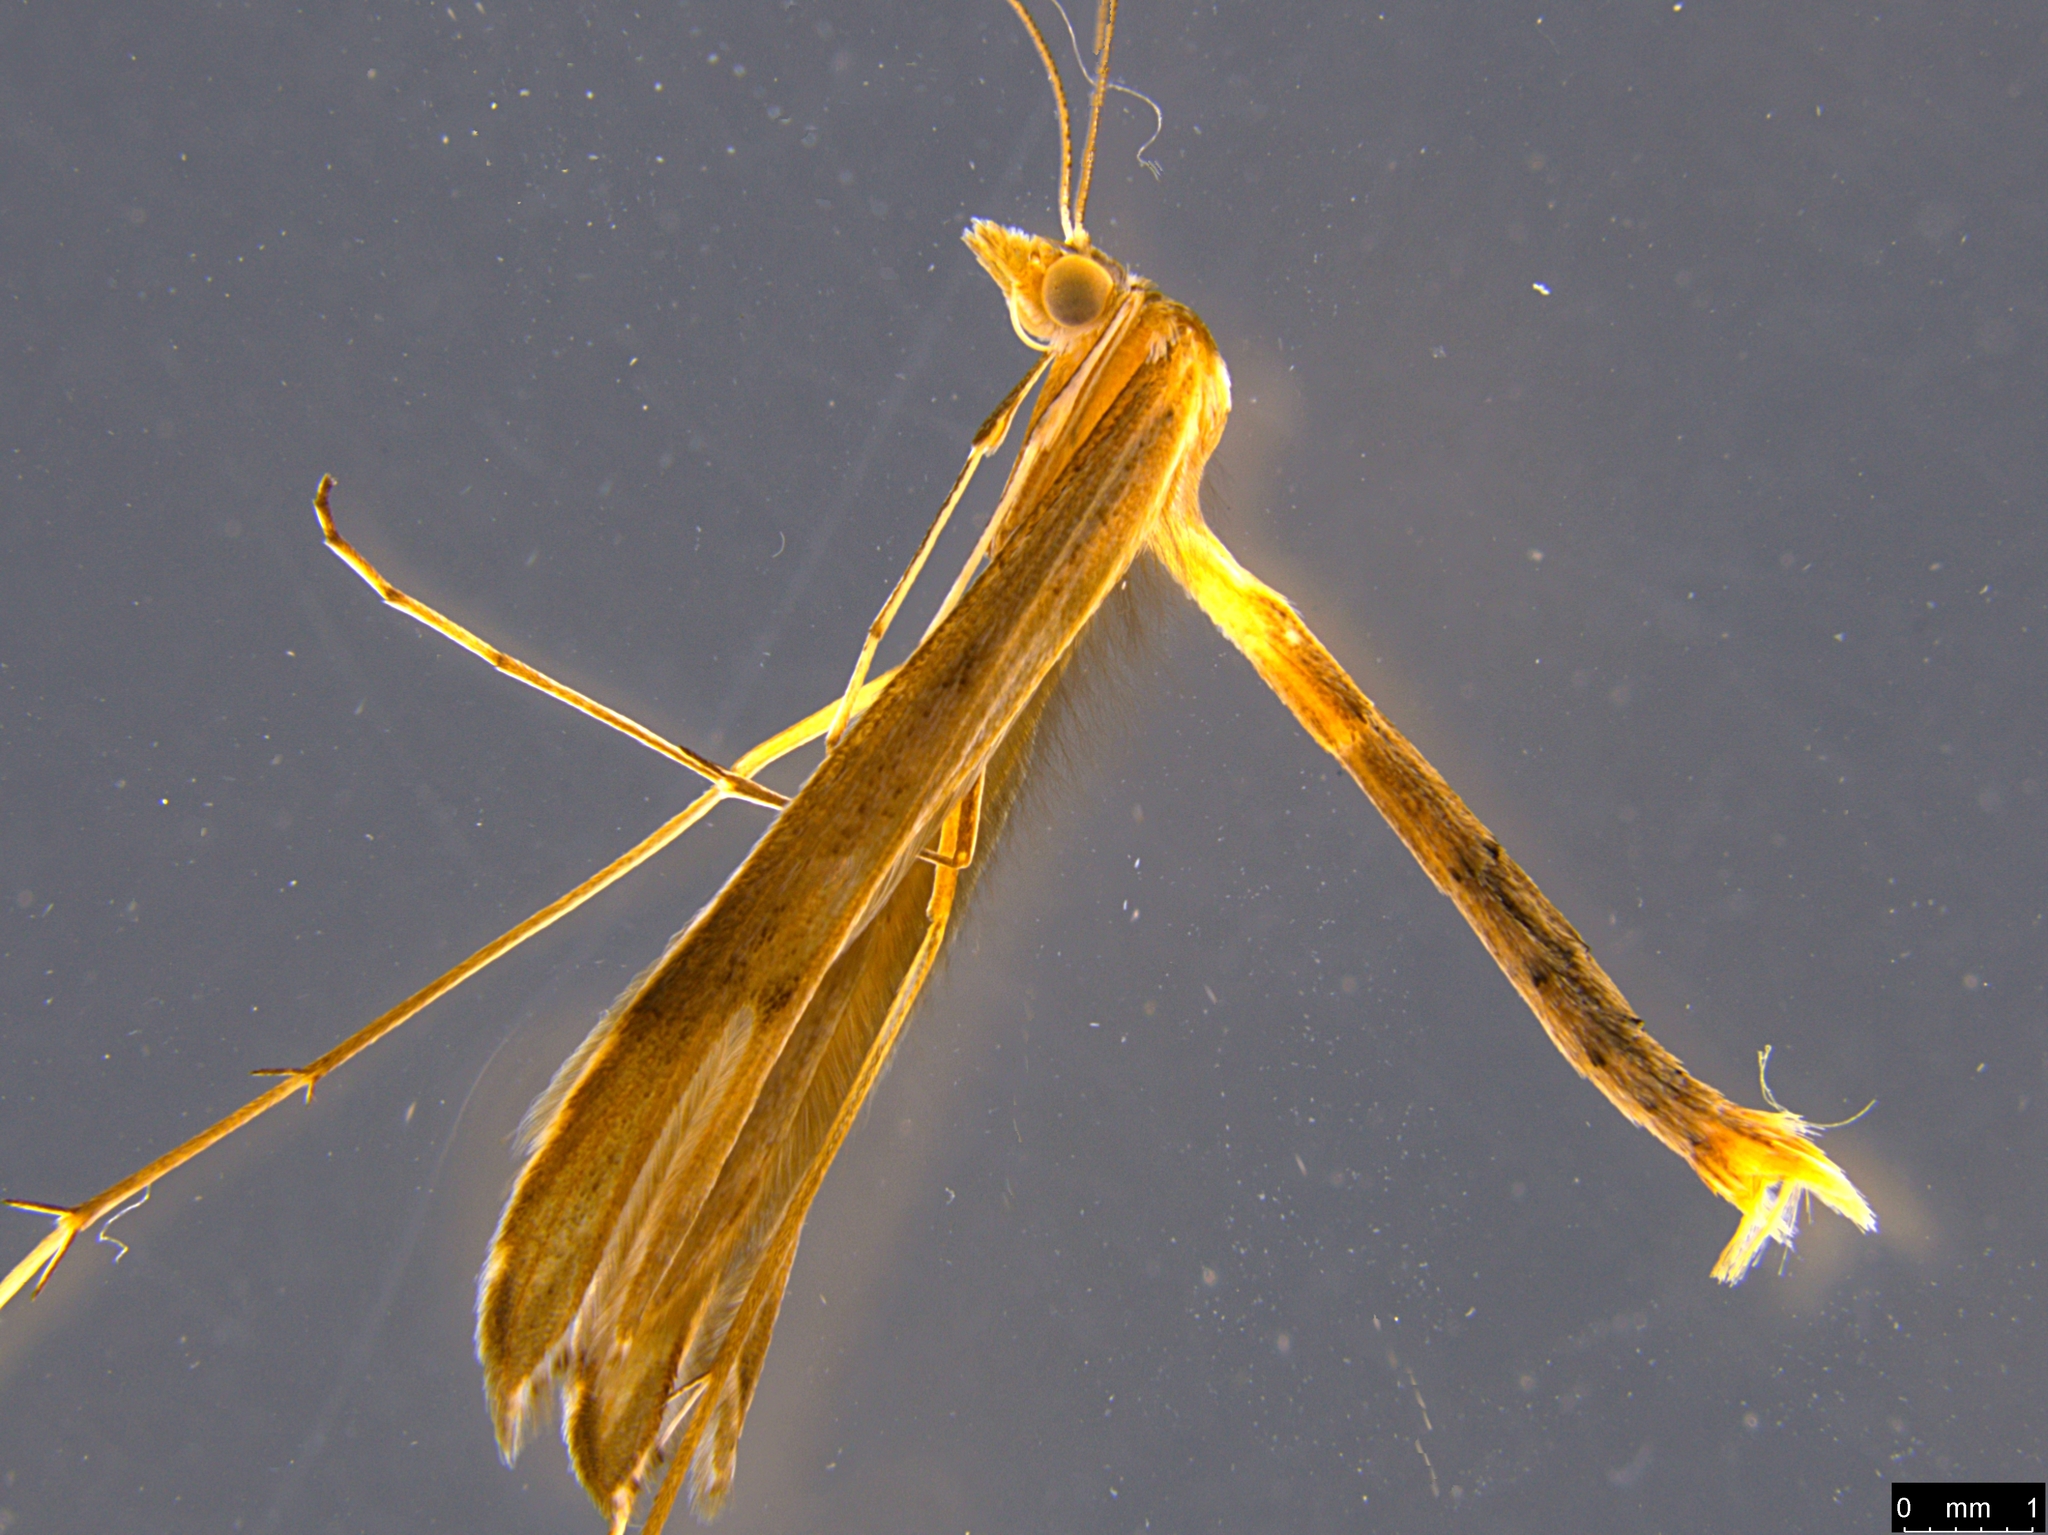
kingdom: Animalia
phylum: Arthropoda
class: Insecta
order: Lepidoptera
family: Pterophoridae
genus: Stenoptilia
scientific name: Stenoptilia zophodactylus
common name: Dowdy plume
